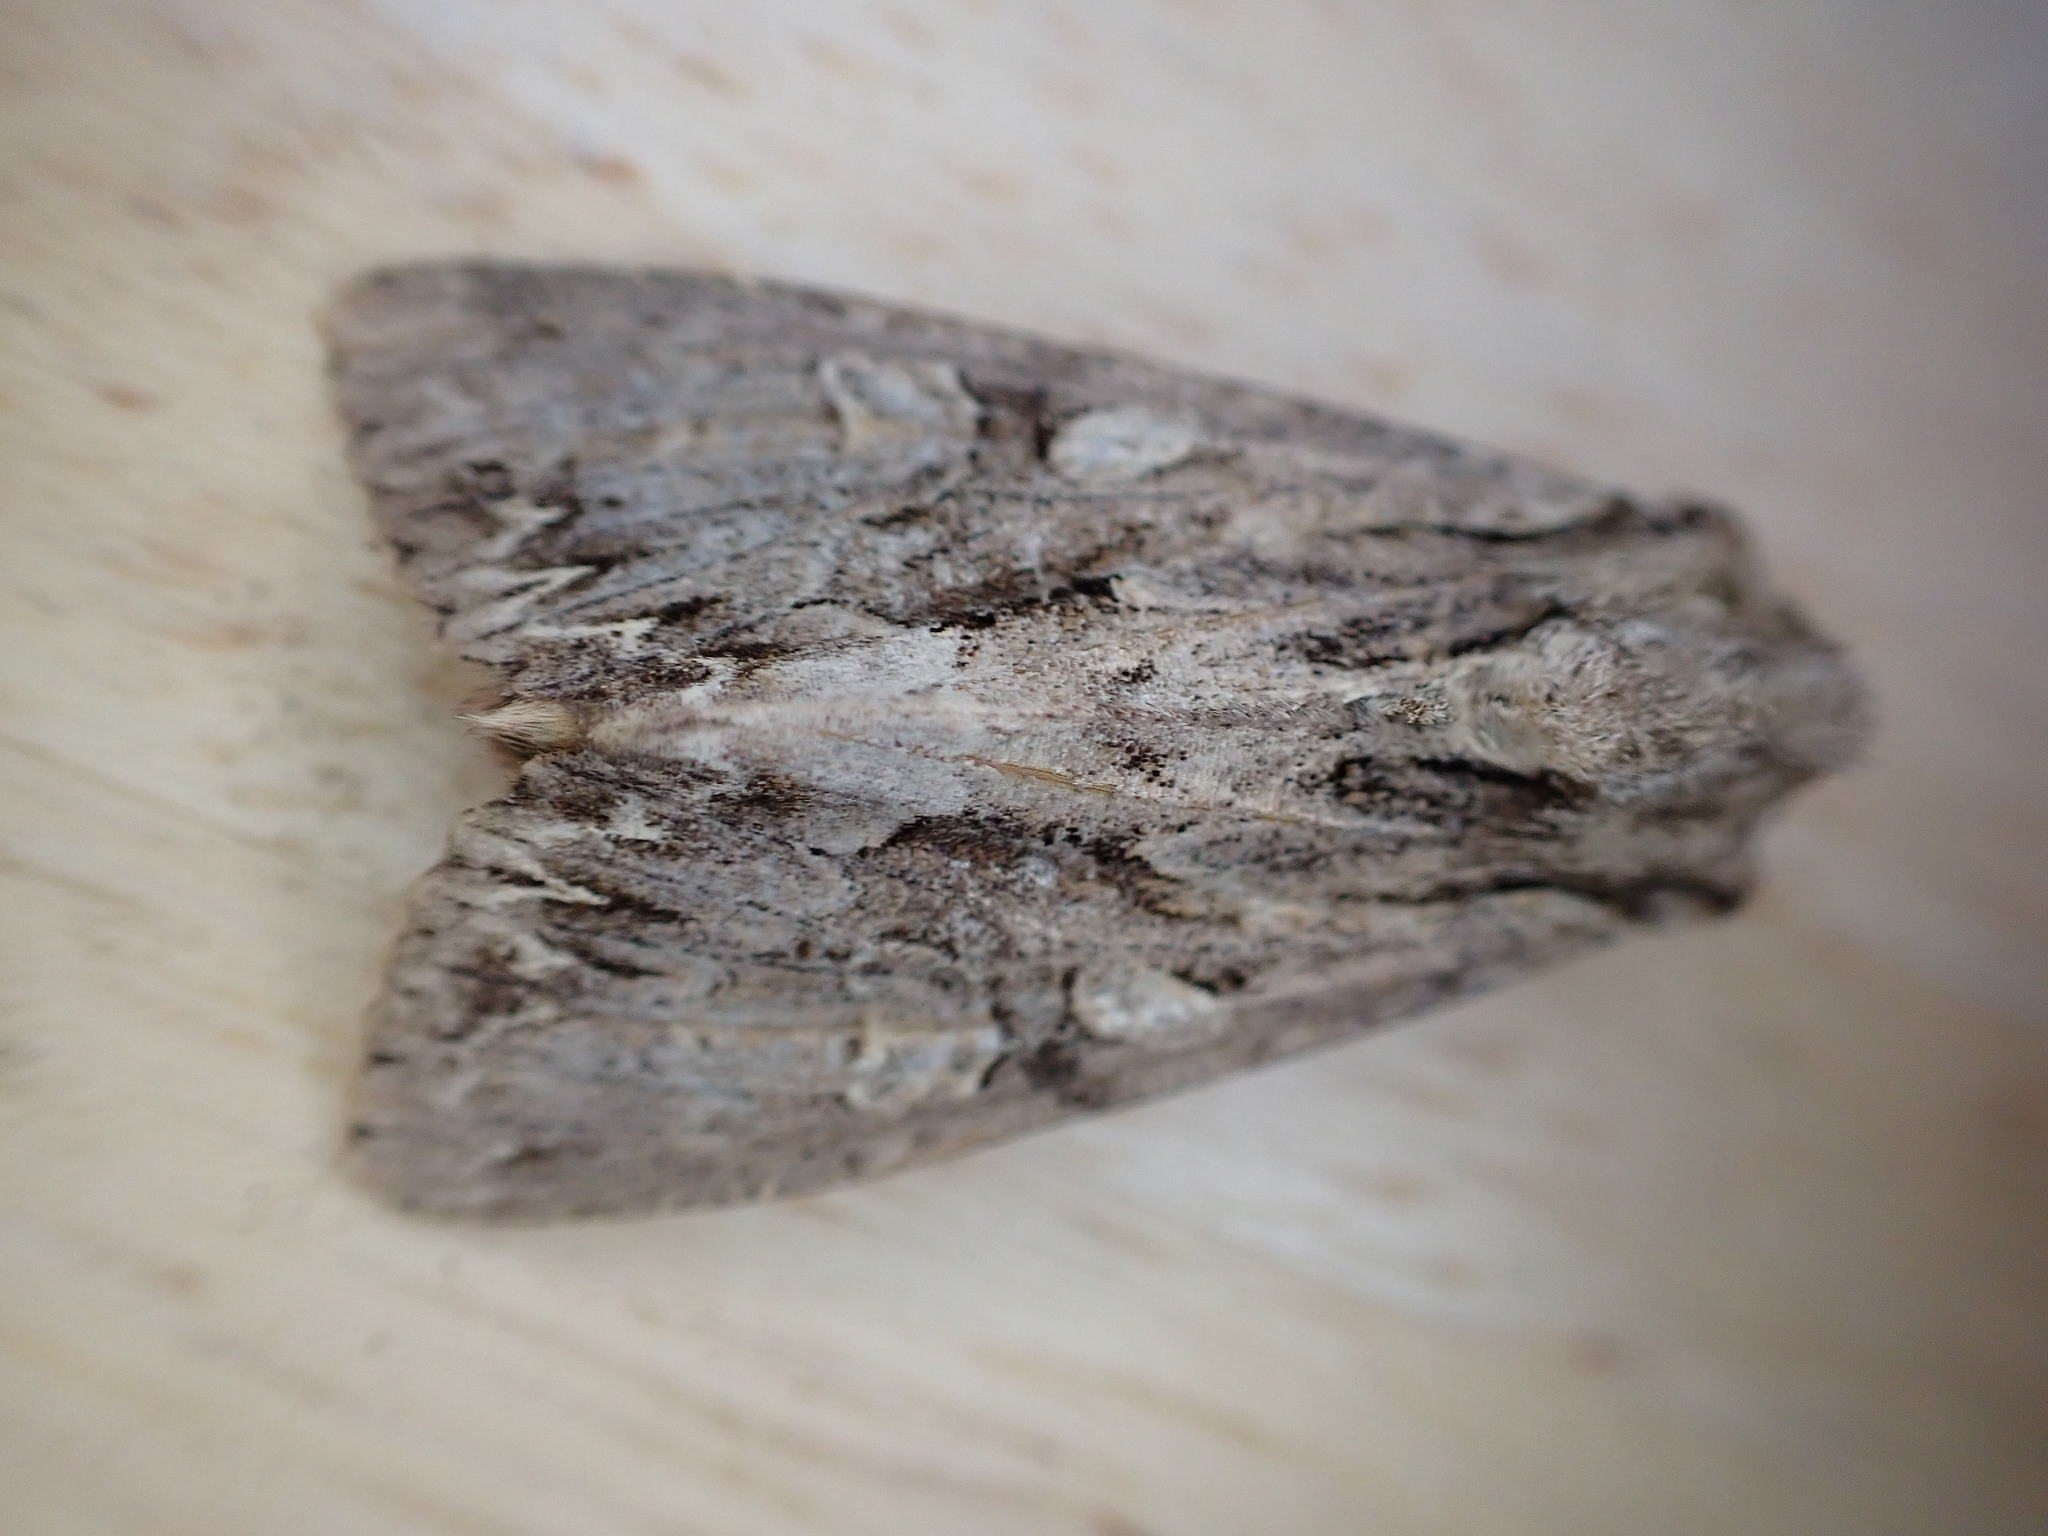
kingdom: Animalia
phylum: Arthropoda
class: Insecta
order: Lepidoptera
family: Noctuidae
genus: Apamea
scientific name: Apamea monoglypha
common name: Dark arches
